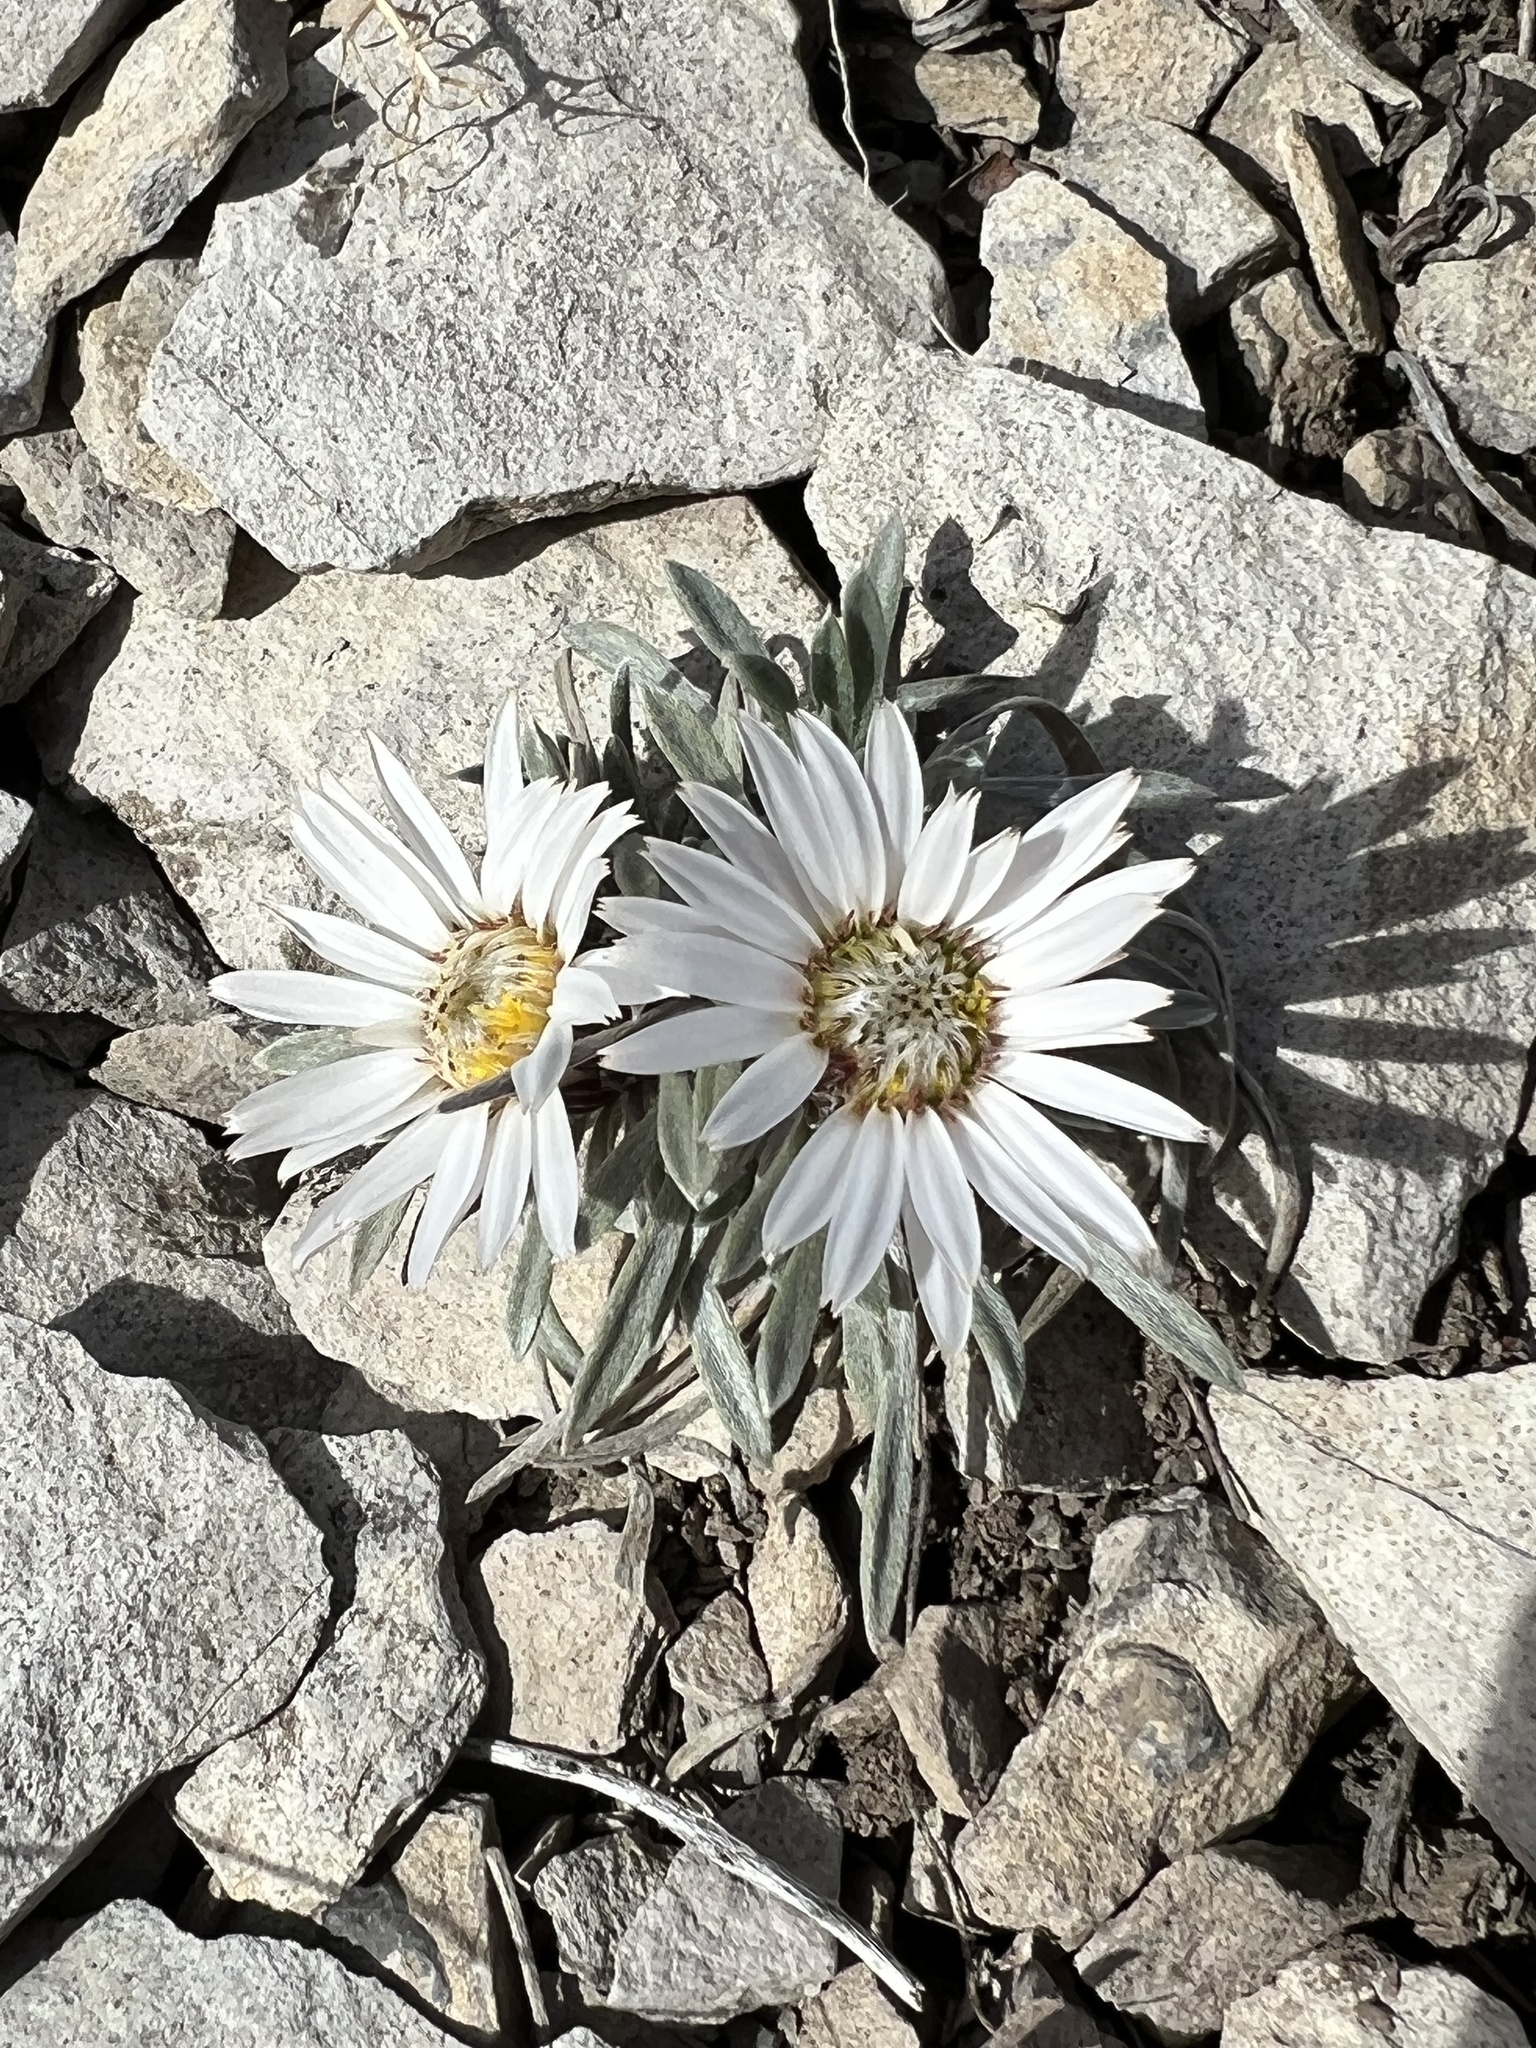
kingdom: Plantae
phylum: Tracheophyta
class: Magnoliopsida
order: Asterales
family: Asteraceae
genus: Townsendia
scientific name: Townsendia hookeri
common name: Hooker's townsend daisy
